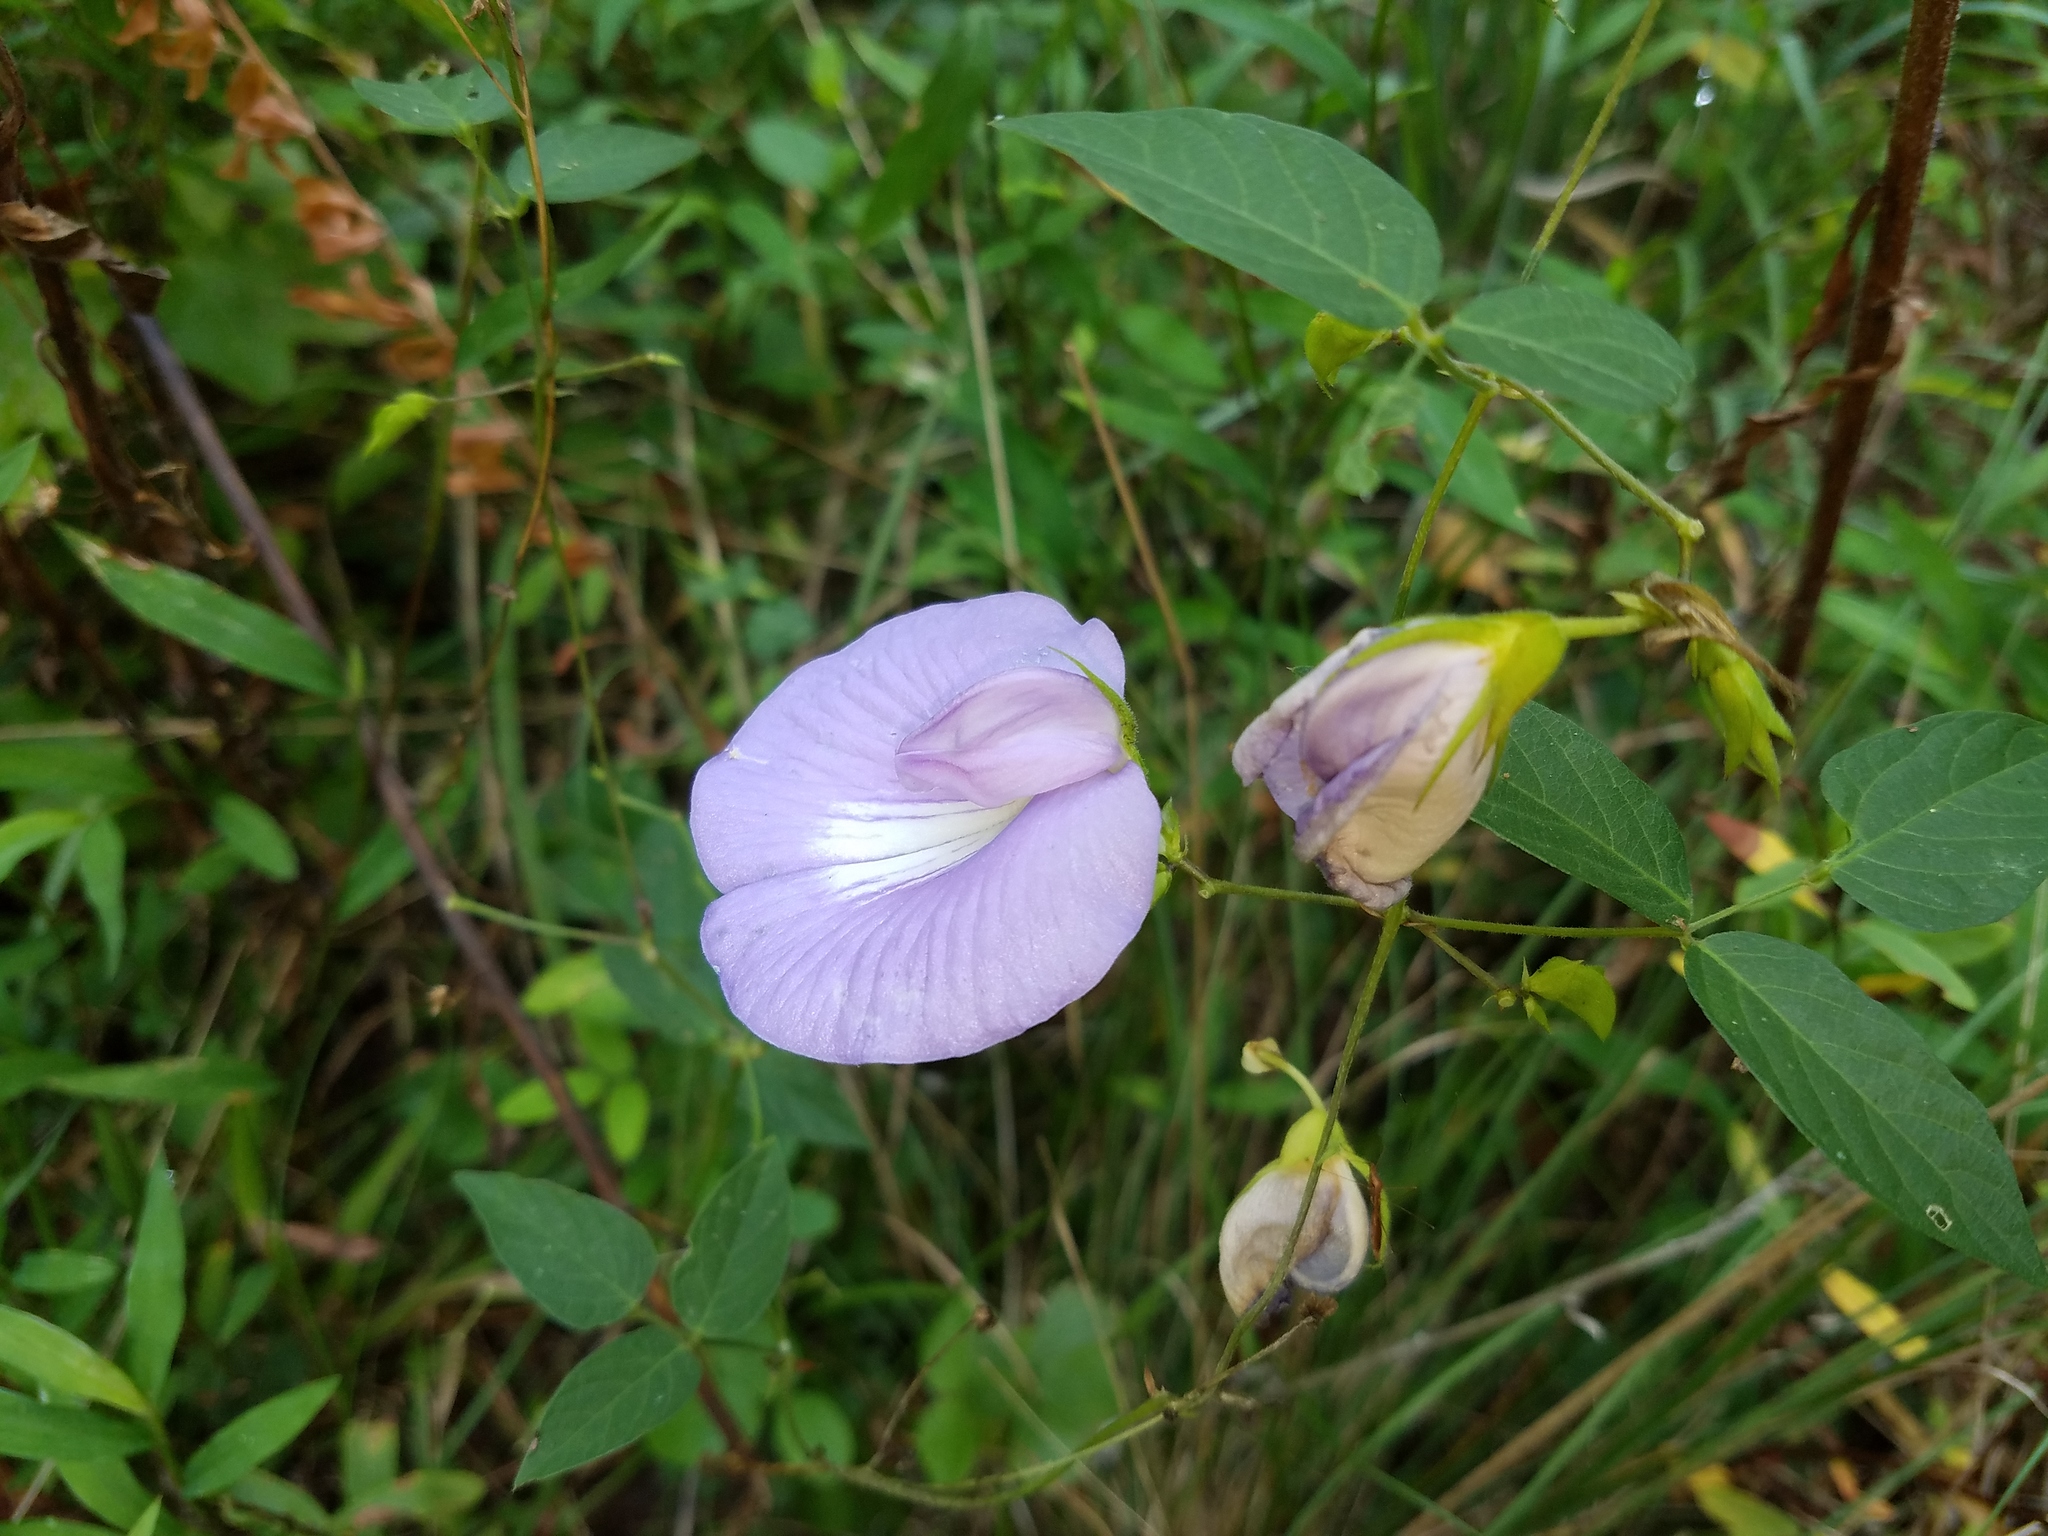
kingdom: Plantae
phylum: Tracheophyta
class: Magnoliopsida
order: Fabales
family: Fabaceae
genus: Centrosema
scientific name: Centrosema virginianum
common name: Butterfly-pea
